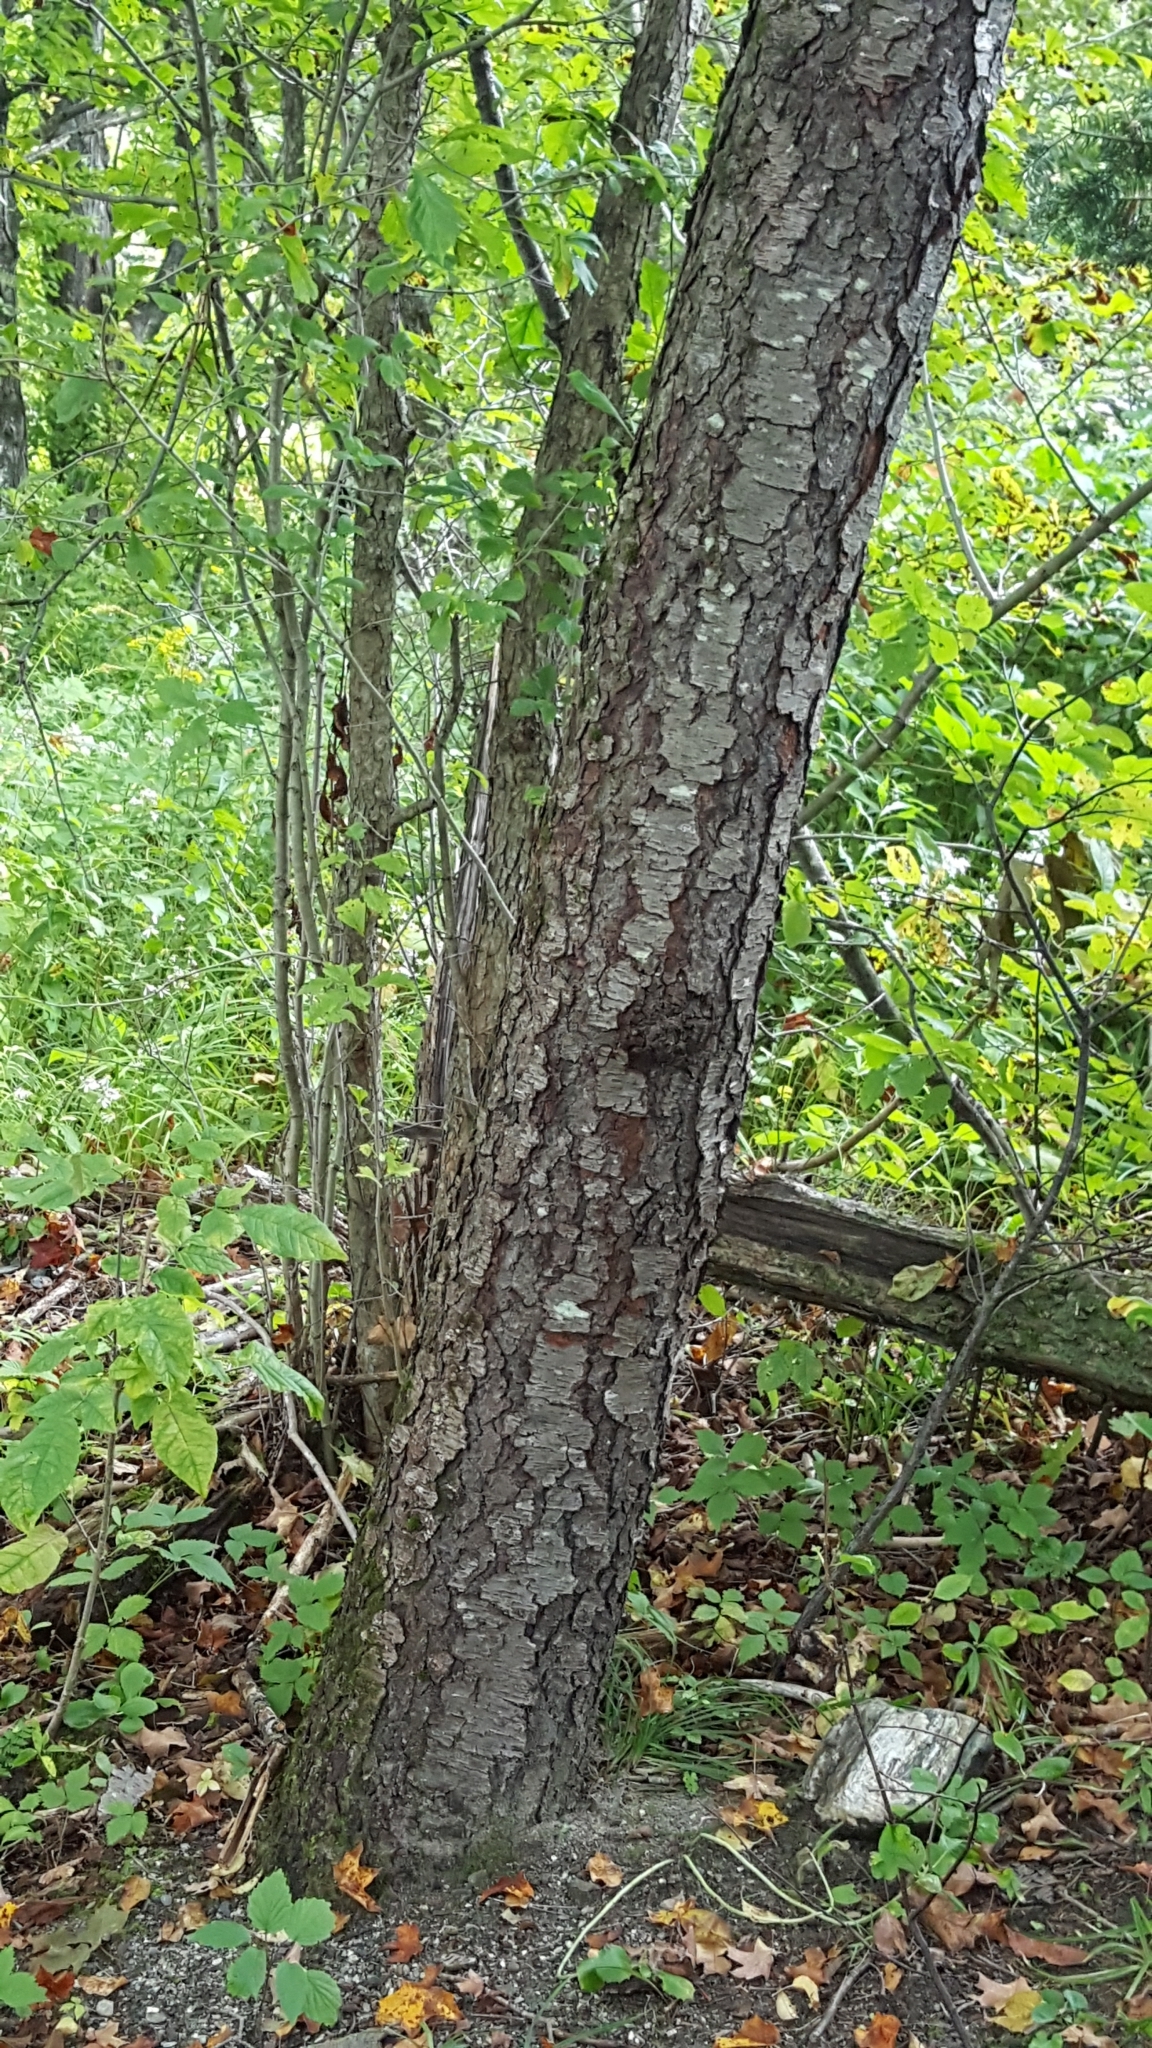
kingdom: Plantae
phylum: Tracheophyta
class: Magnoliopsida
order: Rosales
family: Rosaceae
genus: Prunus
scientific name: Prunus serotina
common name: Black cherry
